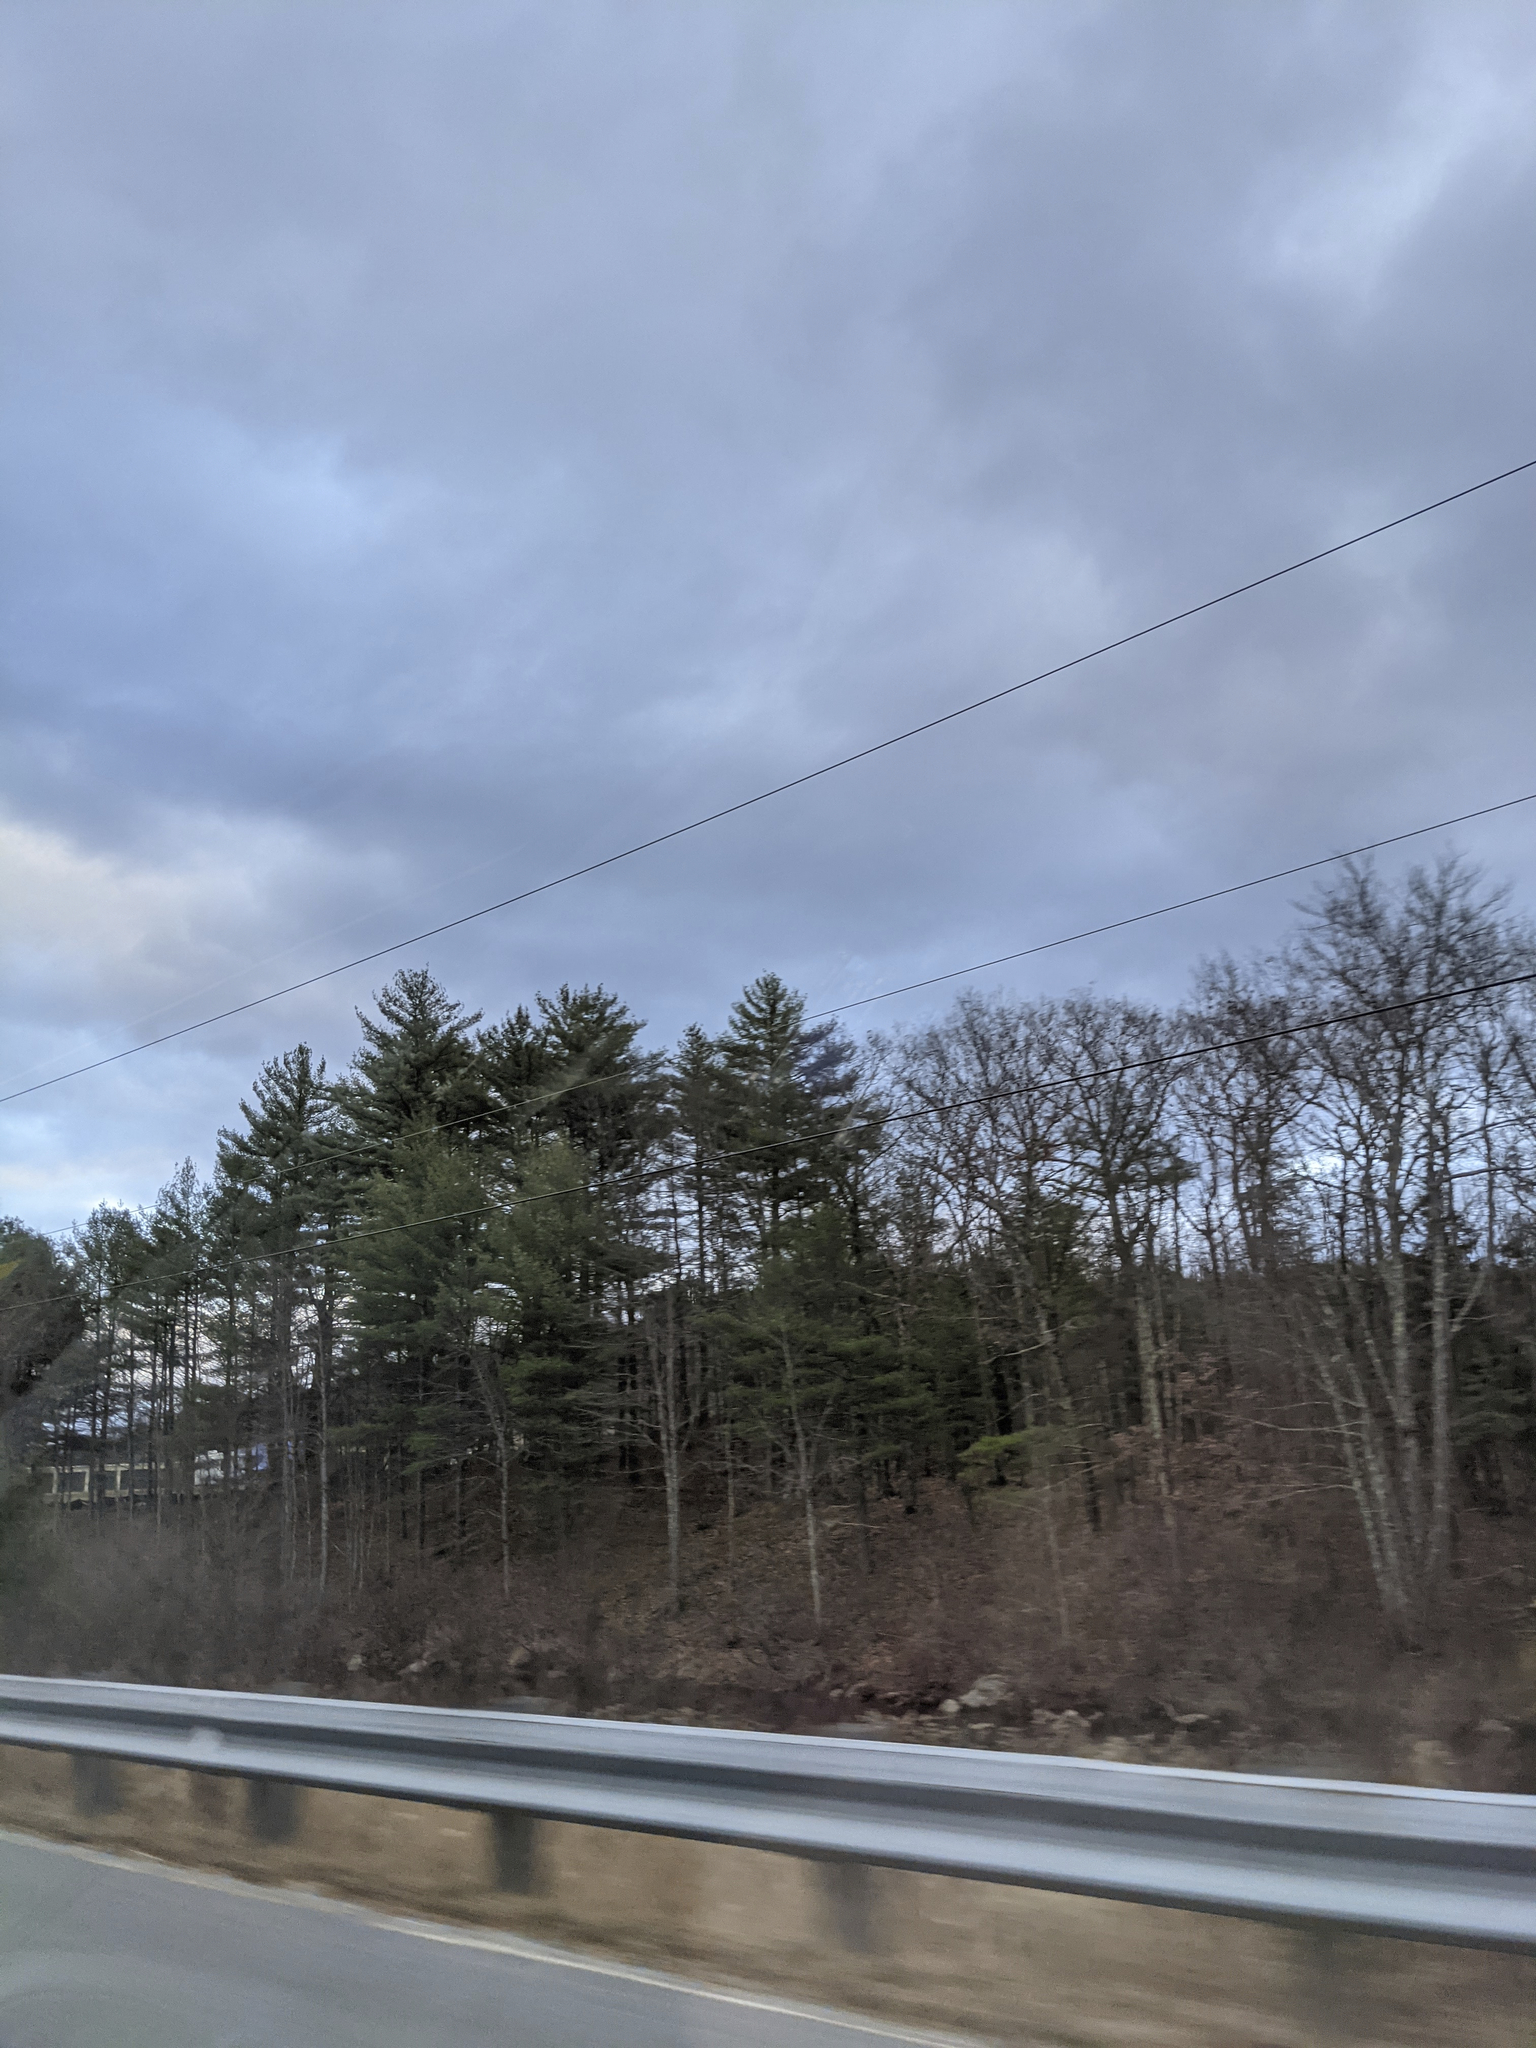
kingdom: Plantae
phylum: Tracheophyta
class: Pinopsida
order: Pinales
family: Pinaceae
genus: Pinus
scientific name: Pinus strobus
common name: Weymouth pine
